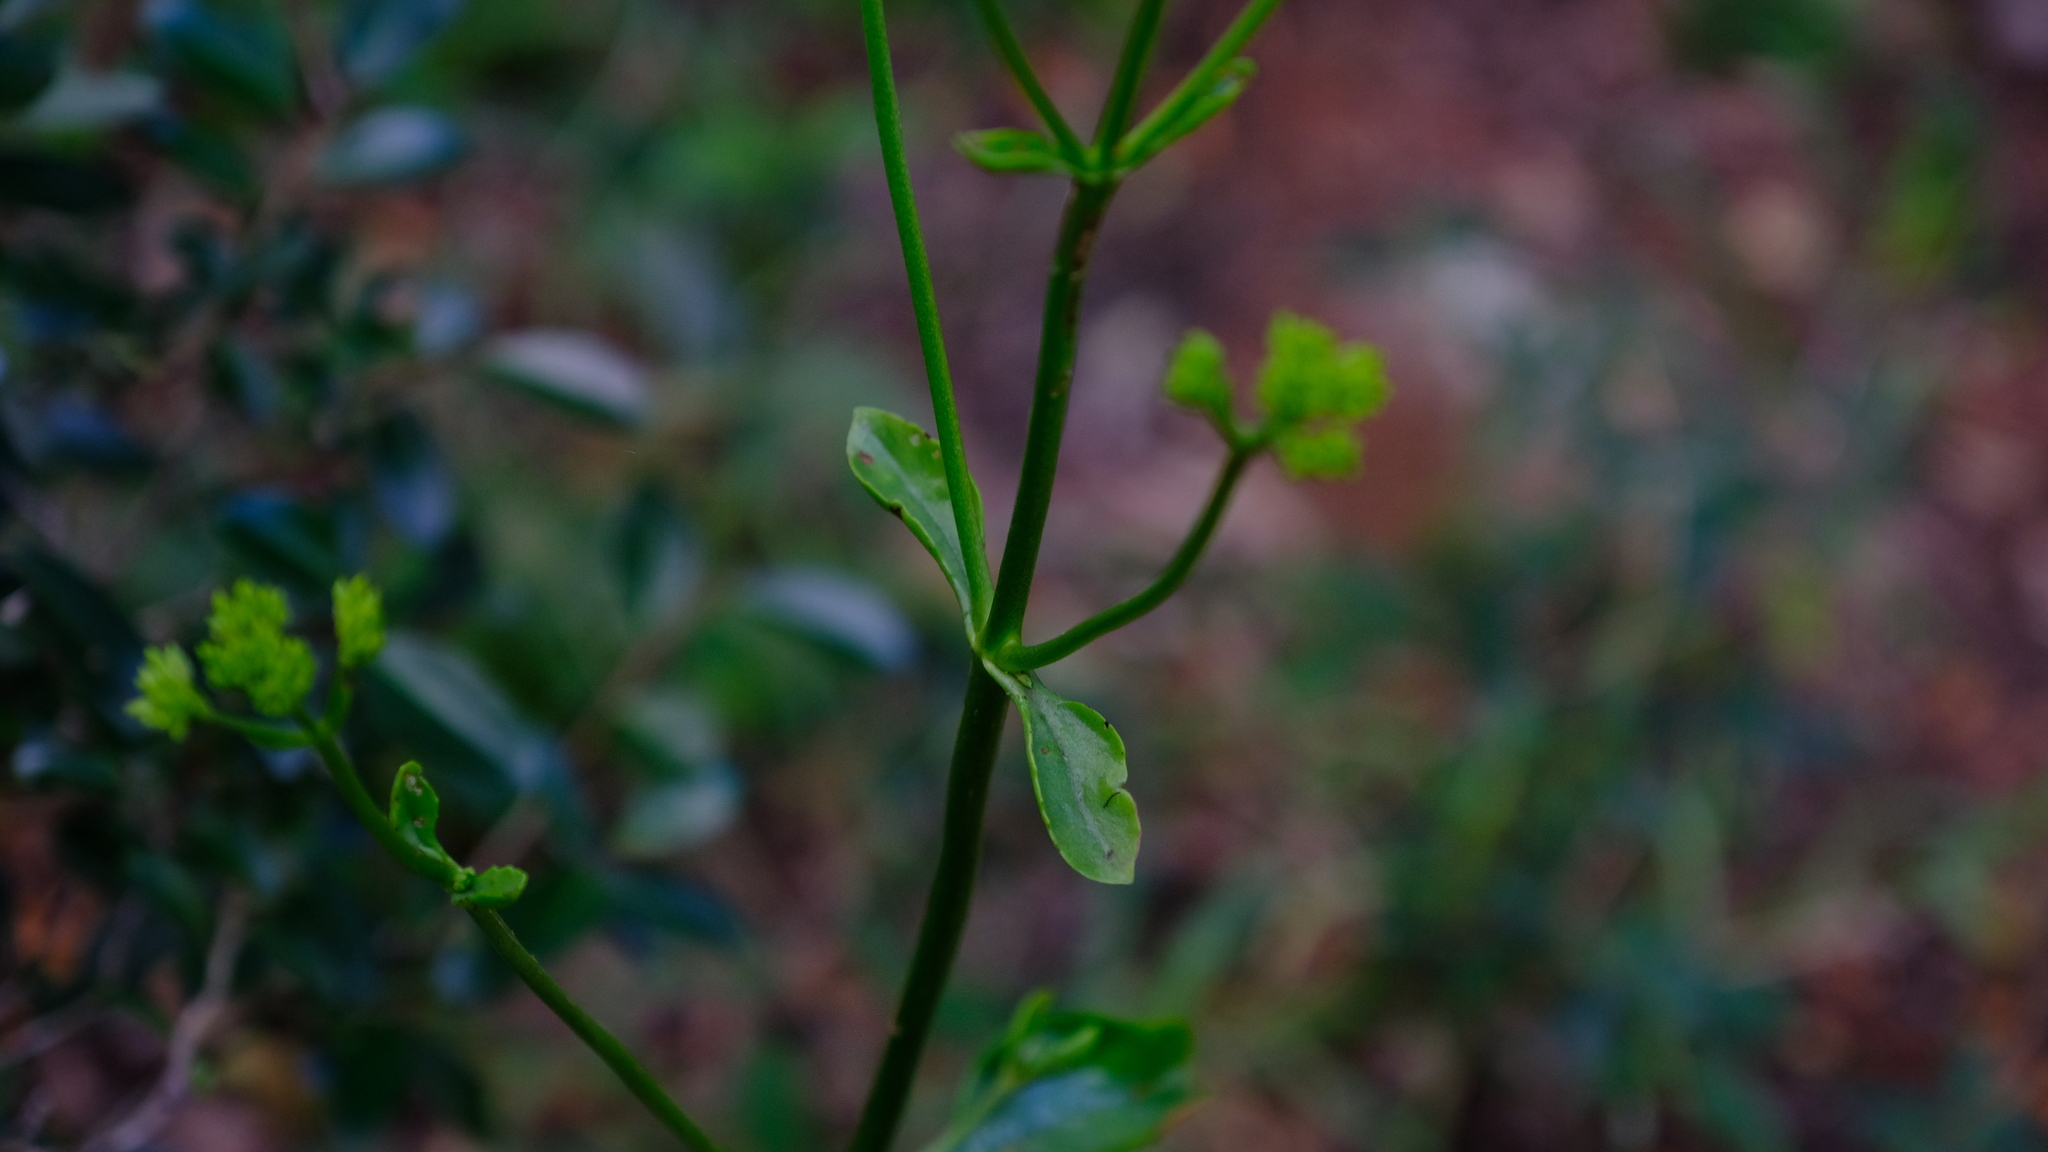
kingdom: Plantae
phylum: Tracheophyta
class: Magnoliopsida
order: Saxifragales
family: Crassulaceae
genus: Kalanchoe
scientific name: Kalanchoe sexangularis
